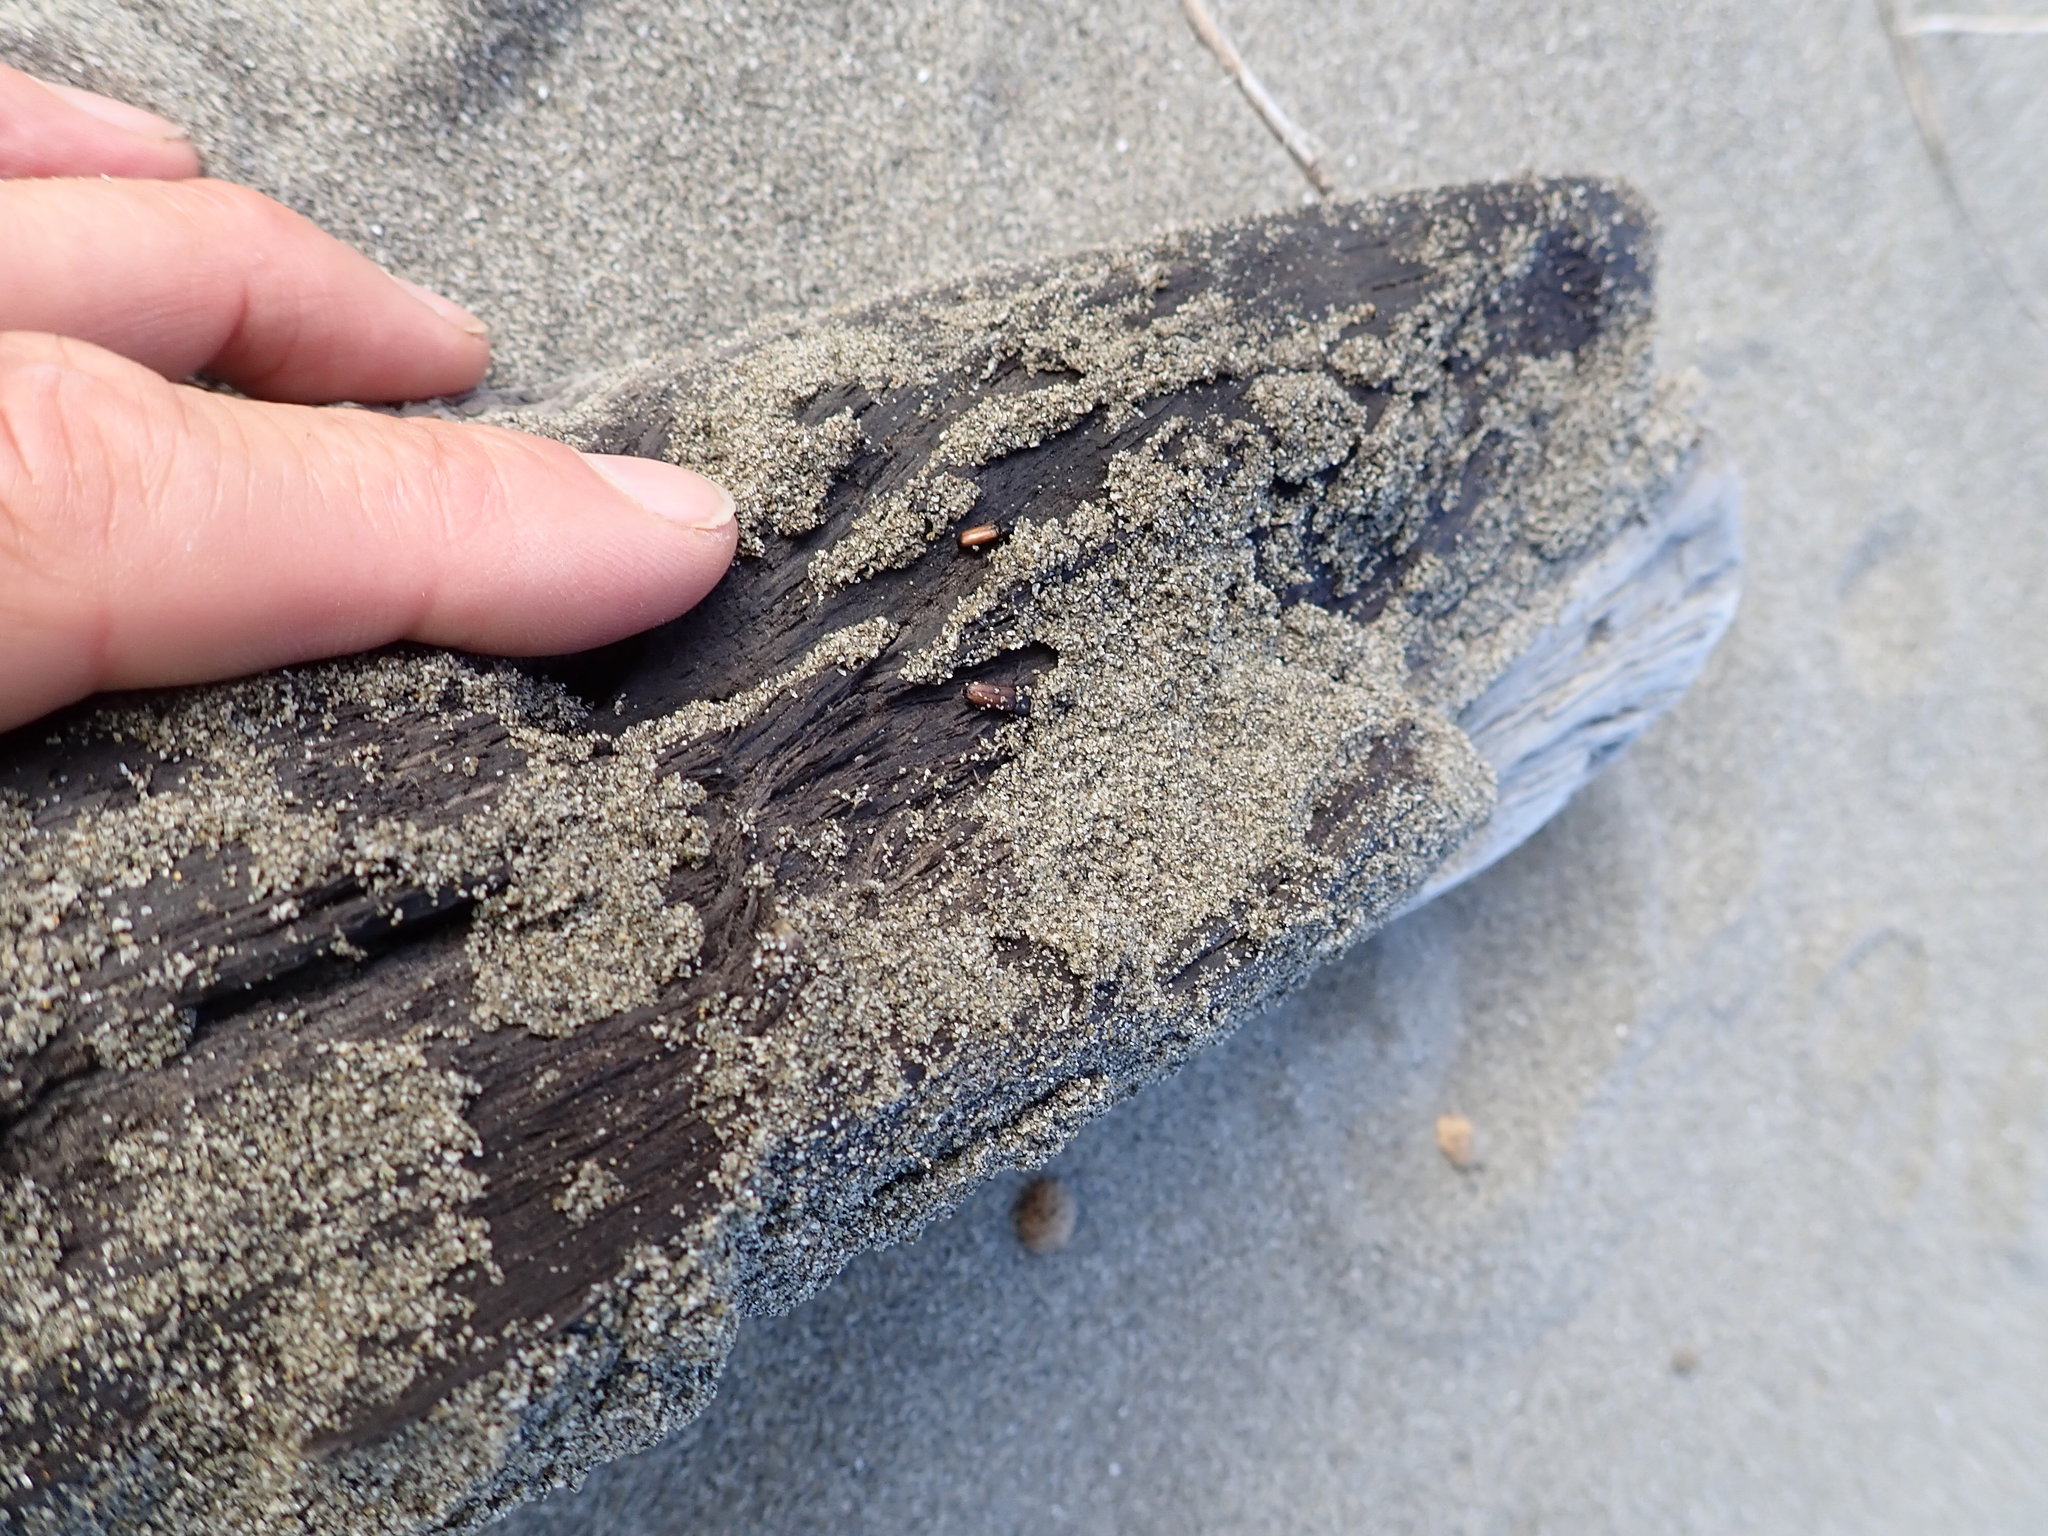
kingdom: Animalia
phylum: Arthropoda
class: Insecta
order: Coleoptera
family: Curculionidae
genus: Mesites
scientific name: Mesites pallidipennis
